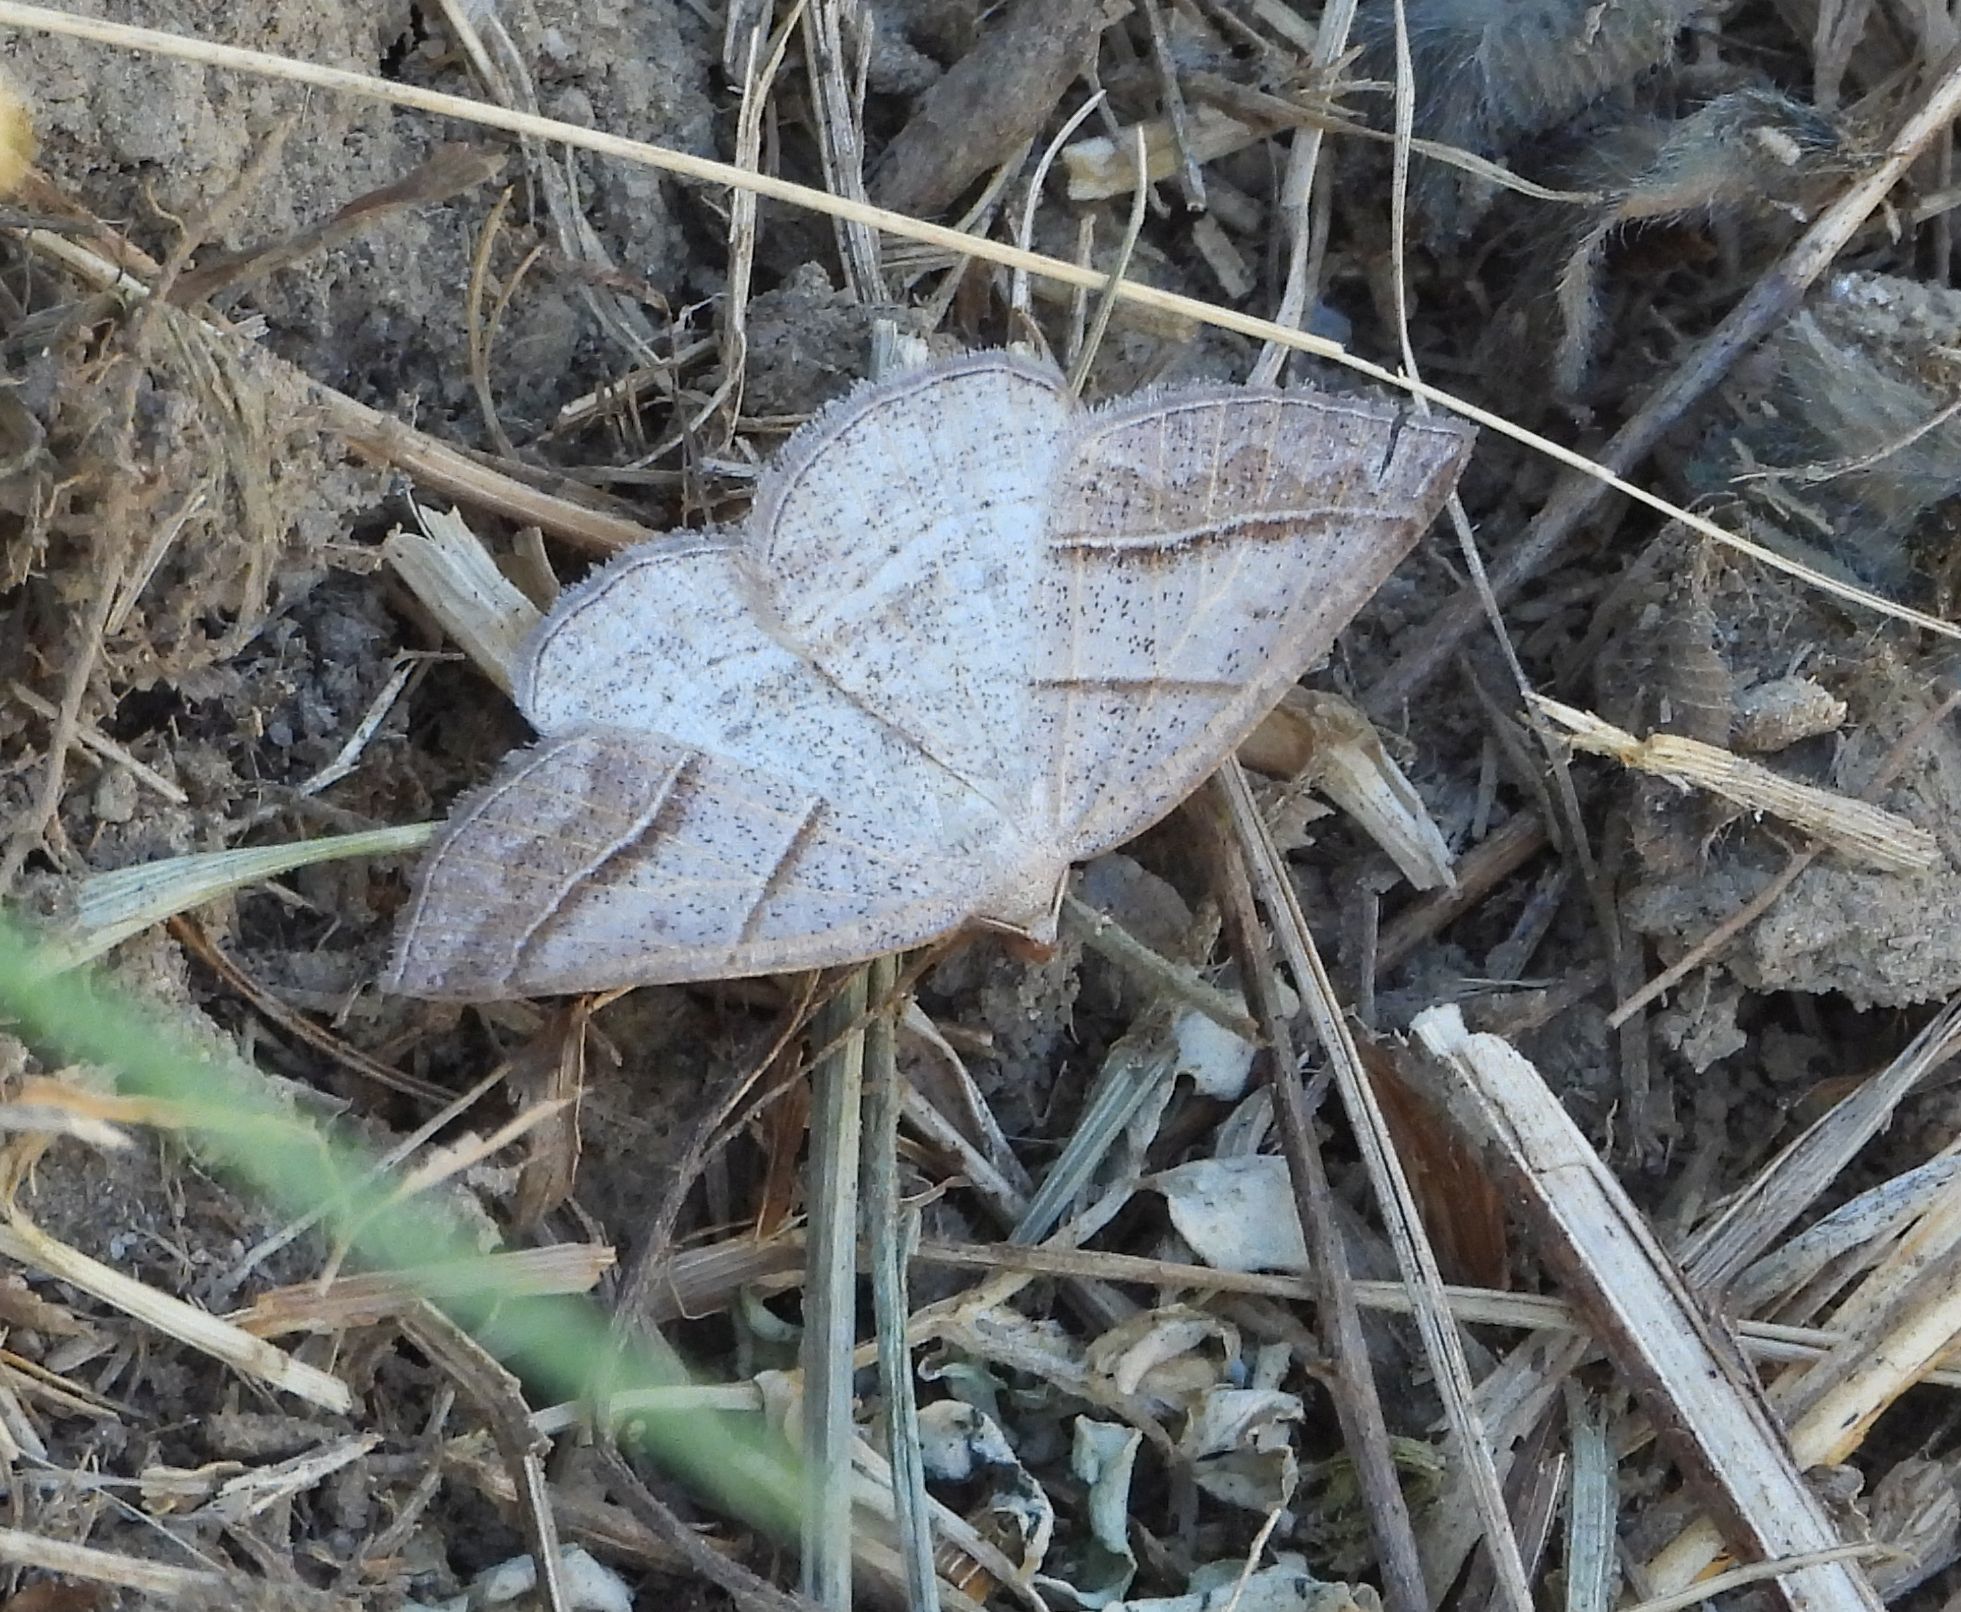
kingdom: Animalia
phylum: Arthropoda
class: Insecta
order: Lepidoptera
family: Pterophoridae
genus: Pterophorus
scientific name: Pterophorus Petrophora subaequaria
